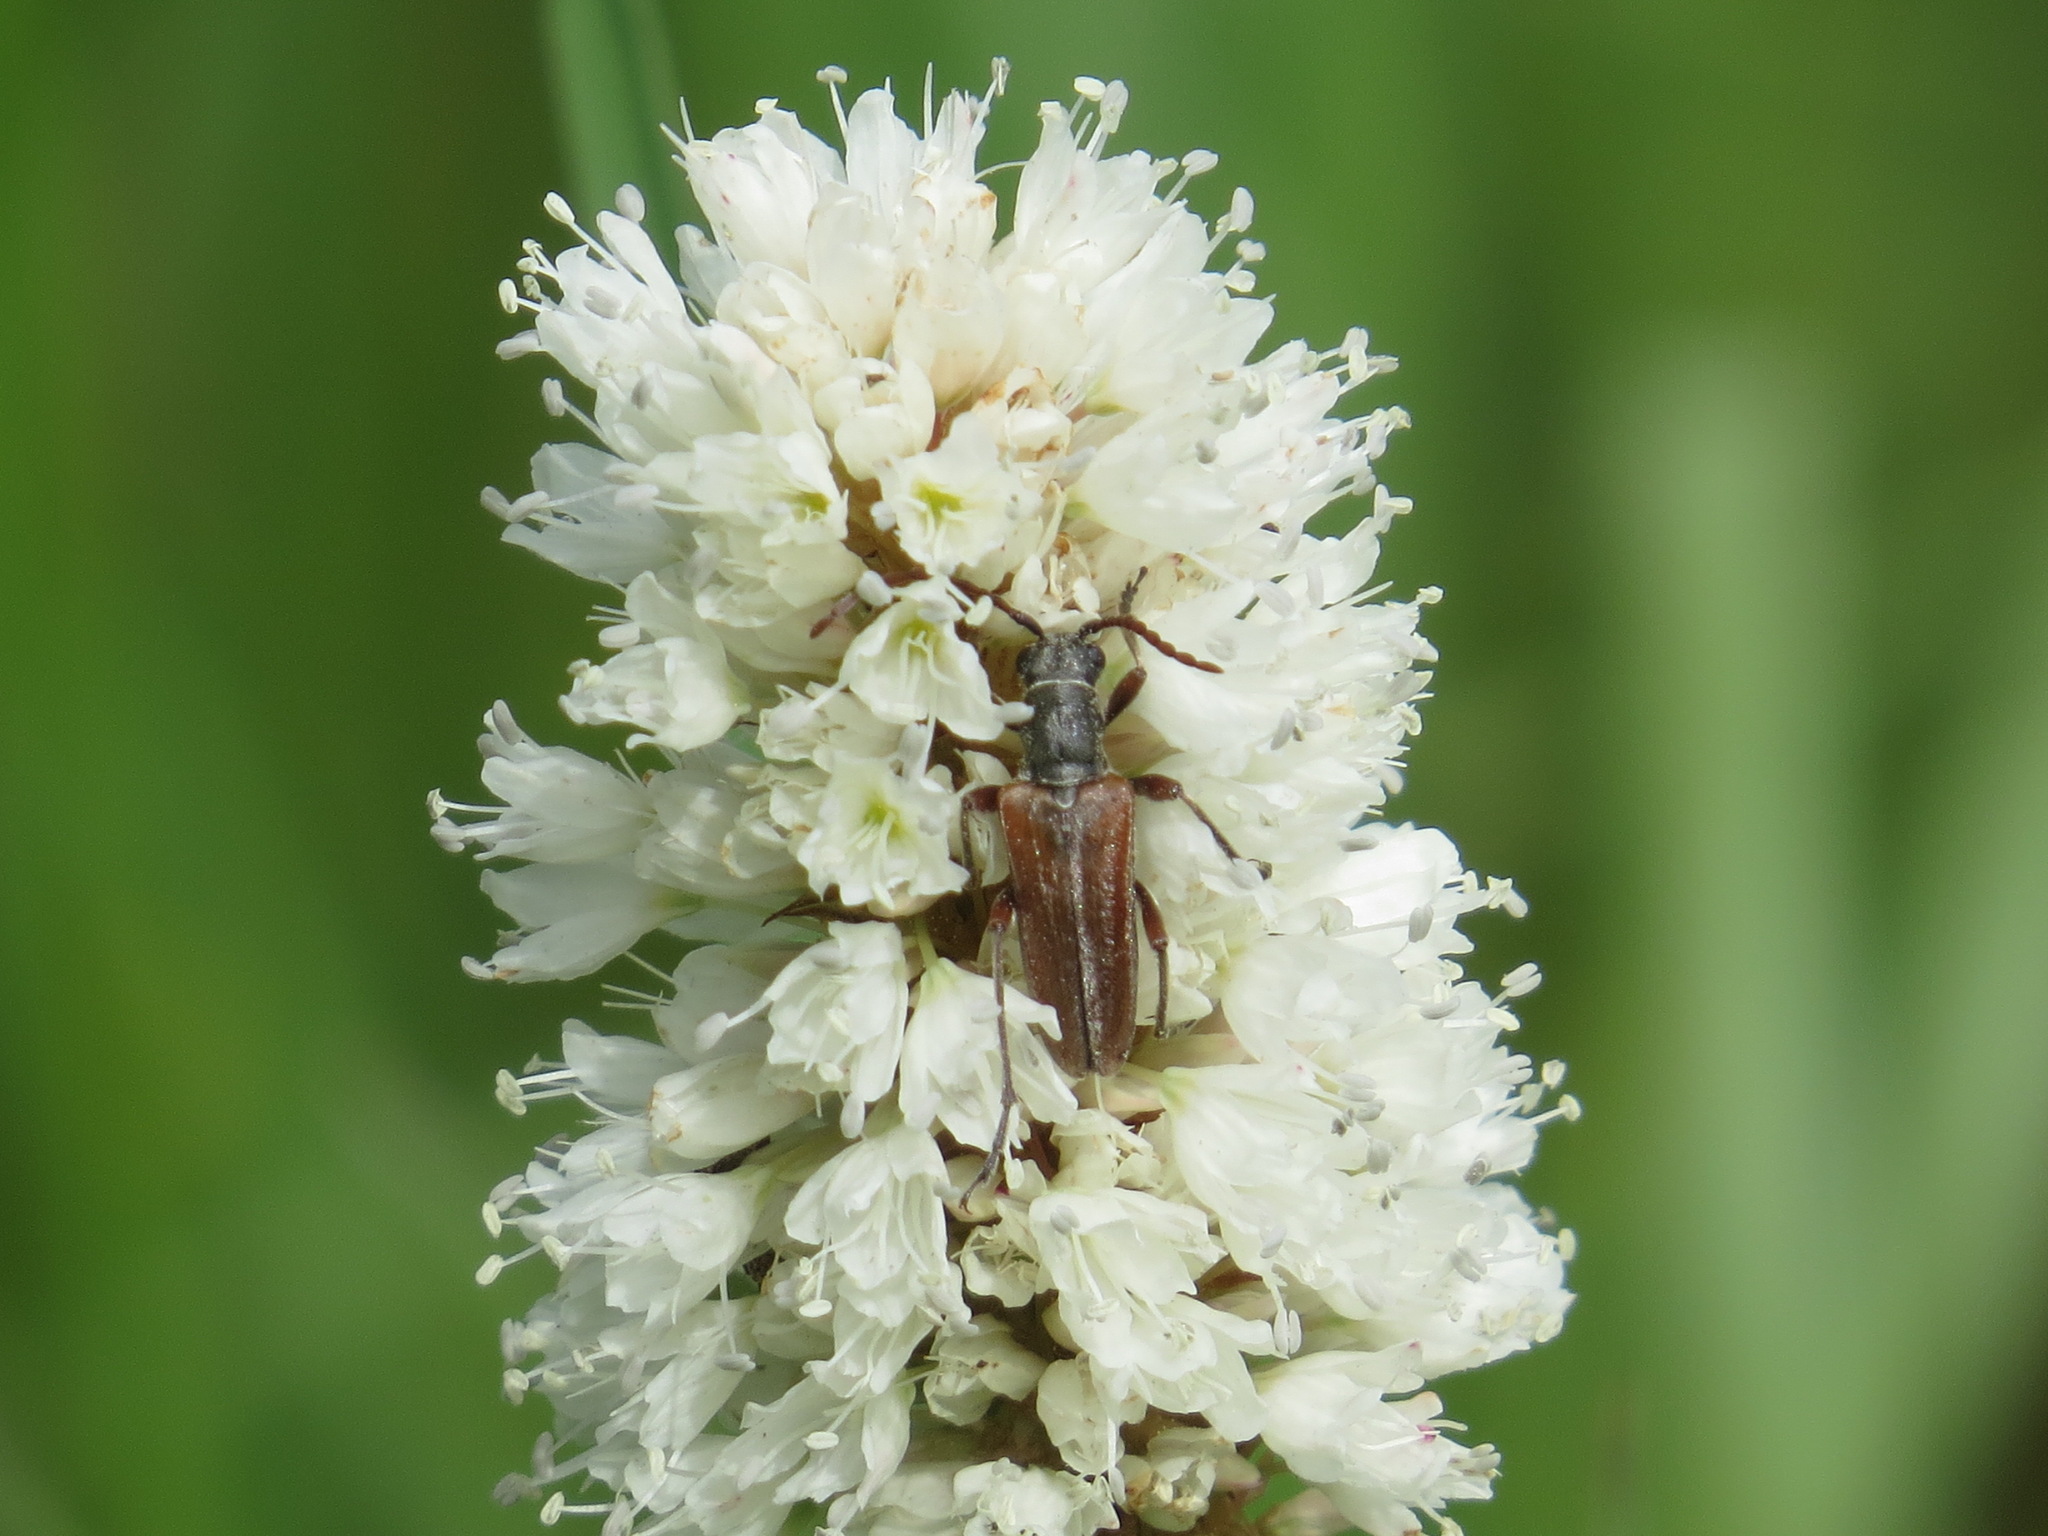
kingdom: Plantae
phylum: Tracheophyta
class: Magnoliopsida
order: Caryophyllales
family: Polygonaceae
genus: Bistorta
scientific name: Bistorta bistortoides
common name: American bistort
